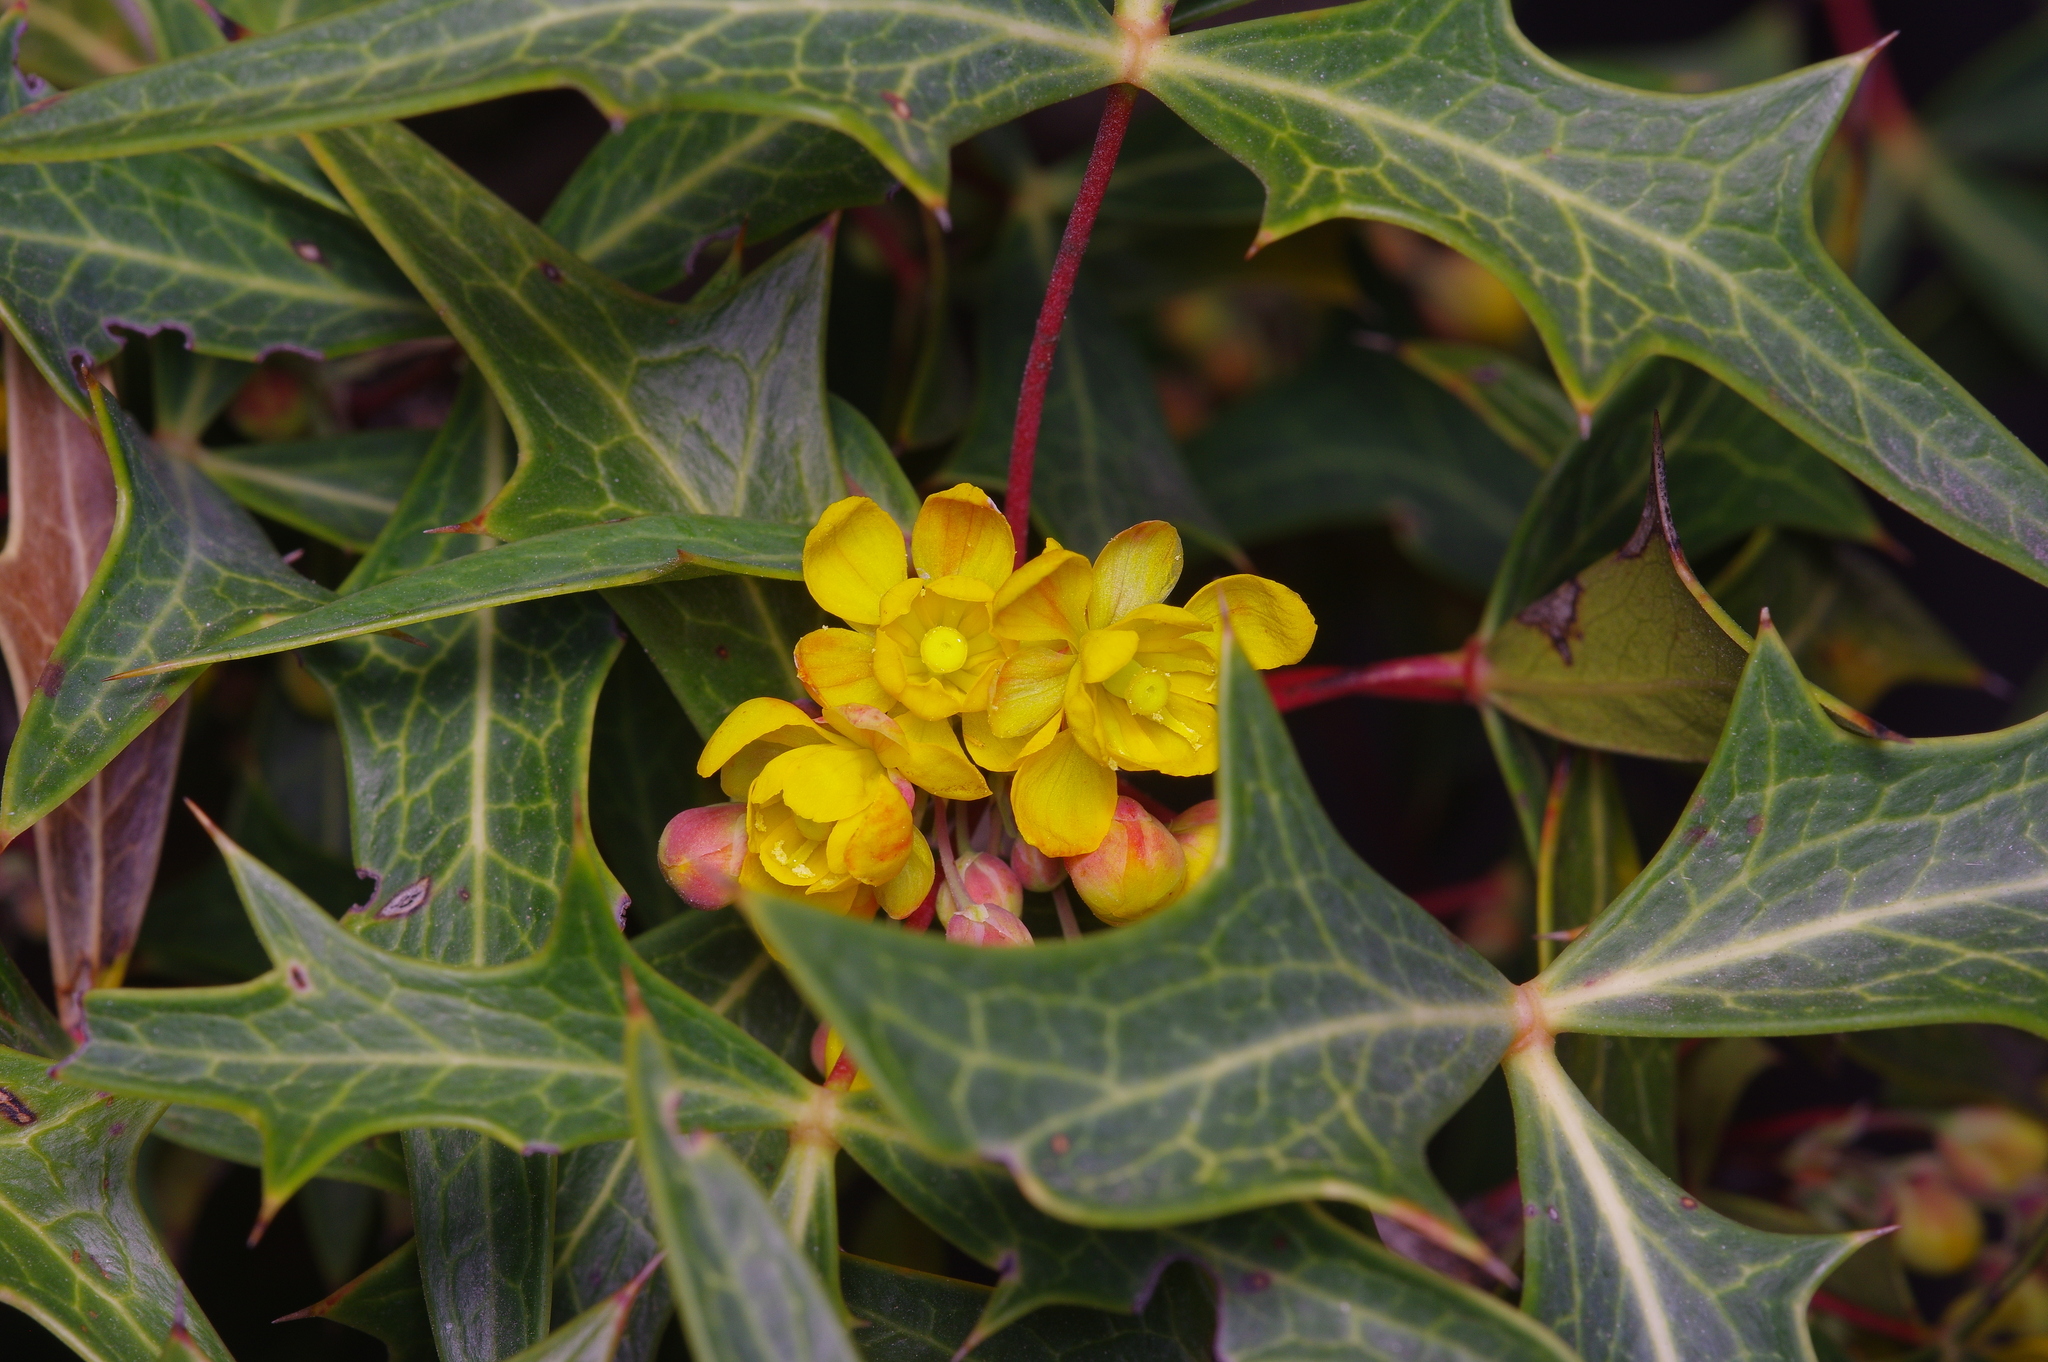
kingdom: Plantae
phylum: Tracheophyta
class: Magnoliopsida
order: Ranunculales
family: Berberidaceae
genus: Alloberberis
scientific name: Alloberberis trifoliolata
